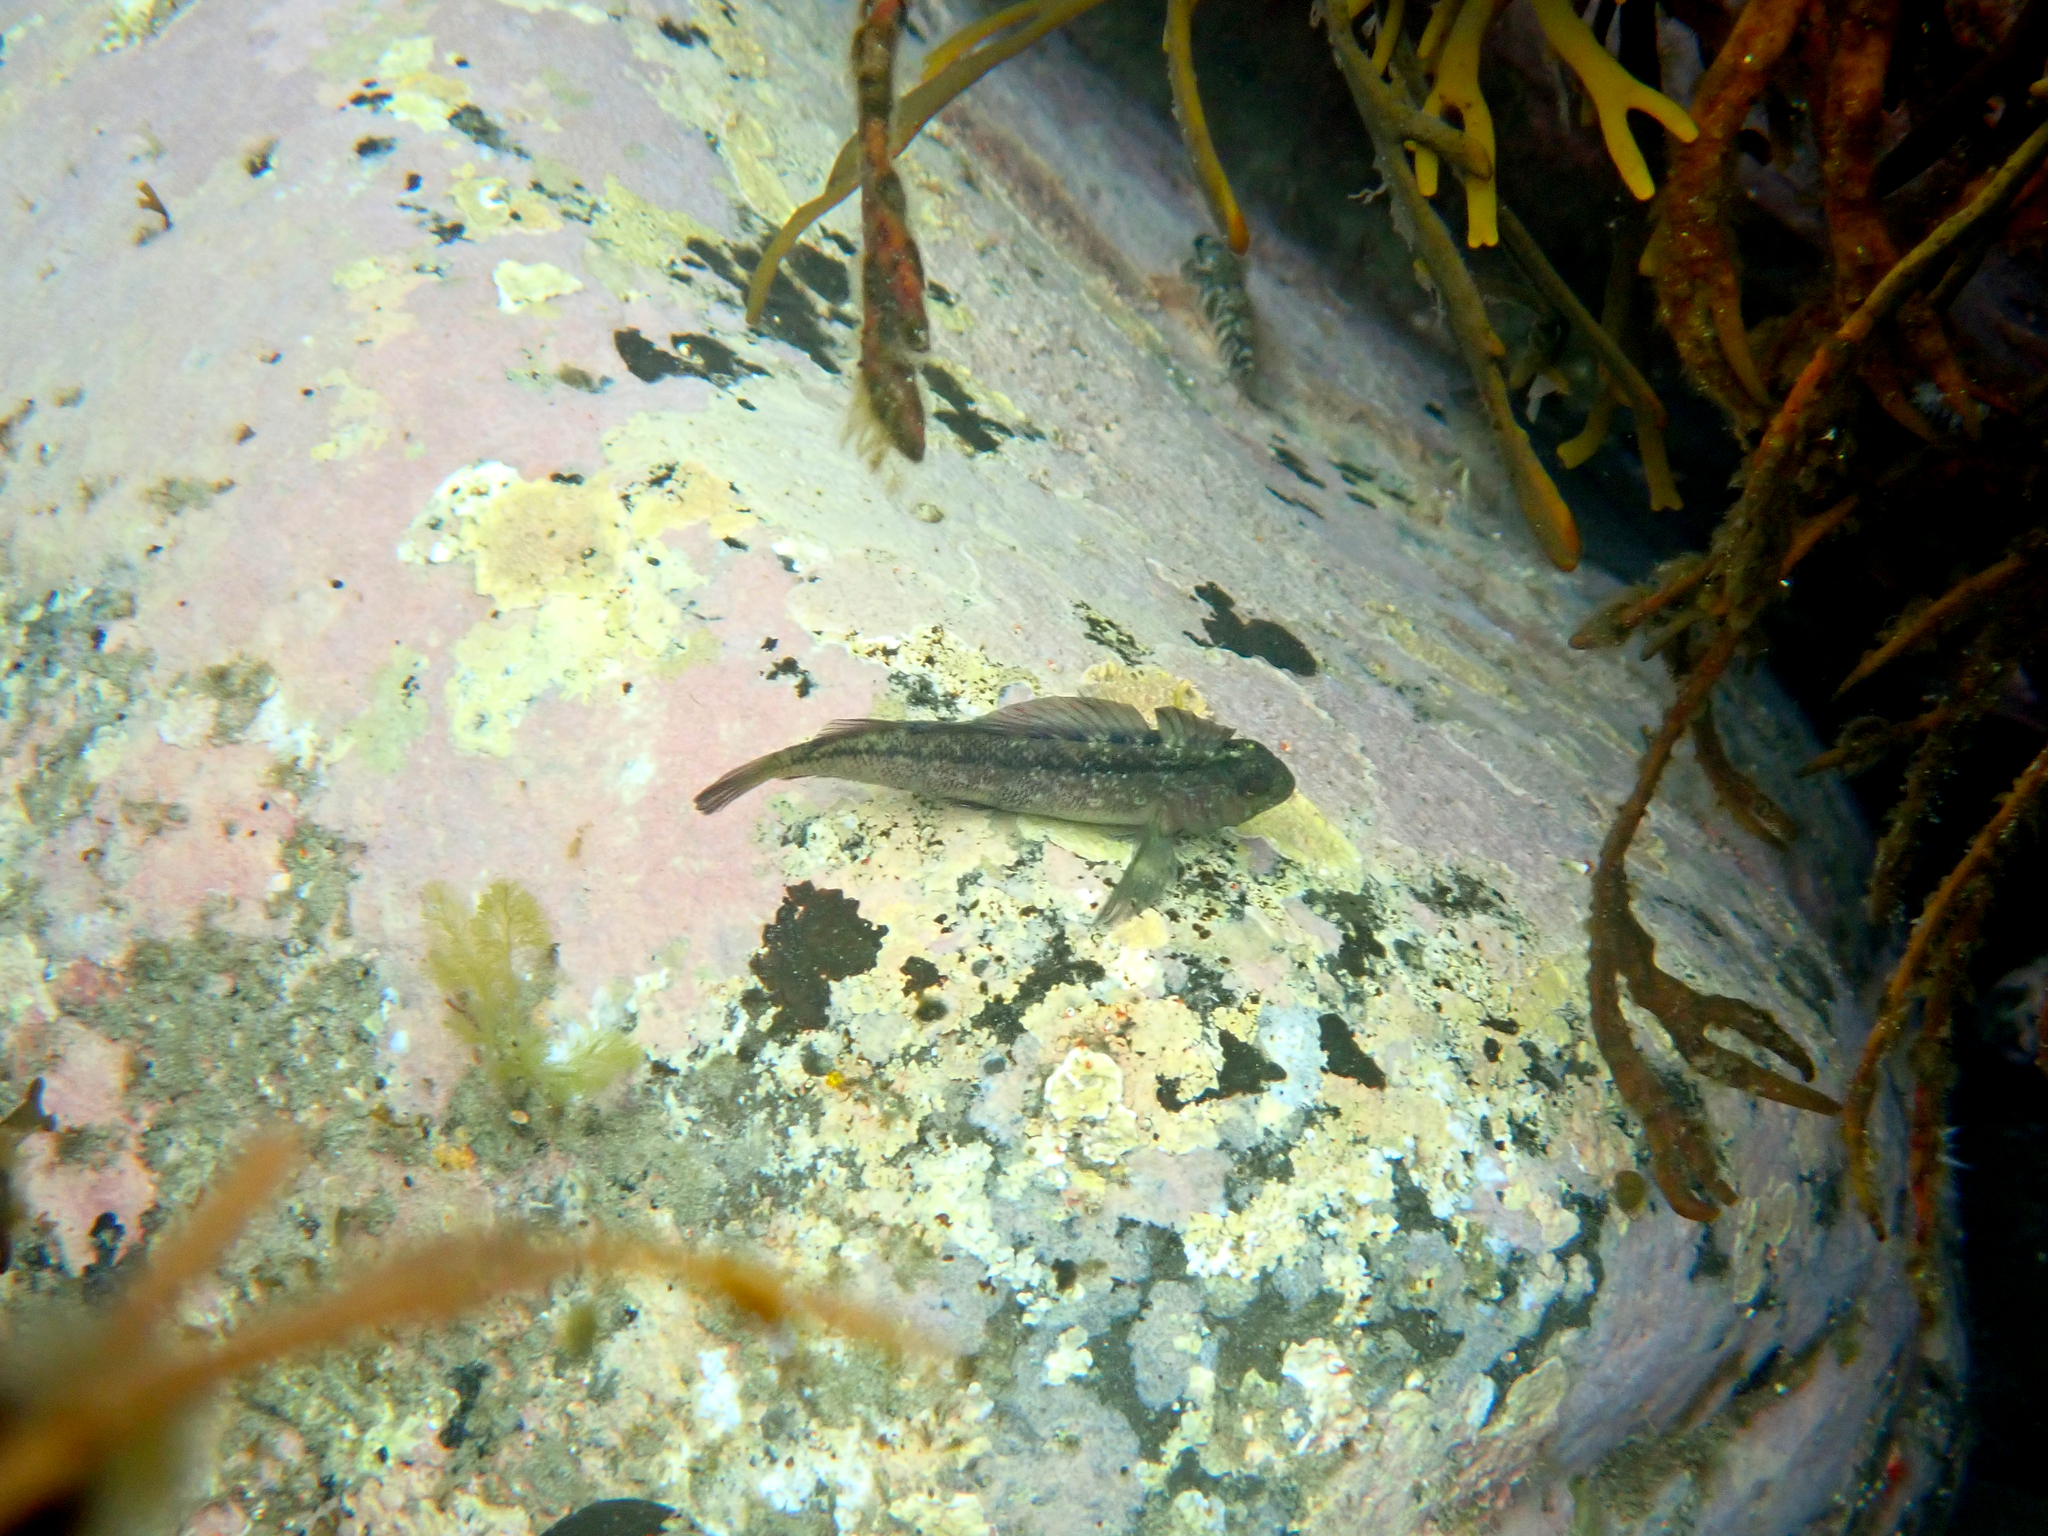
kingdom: Animalia
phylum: Chordata
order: Perciformes
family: Tripterygiidae
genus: Forsterygion
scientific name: Forsterygion lapillum
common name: Common triplefin
